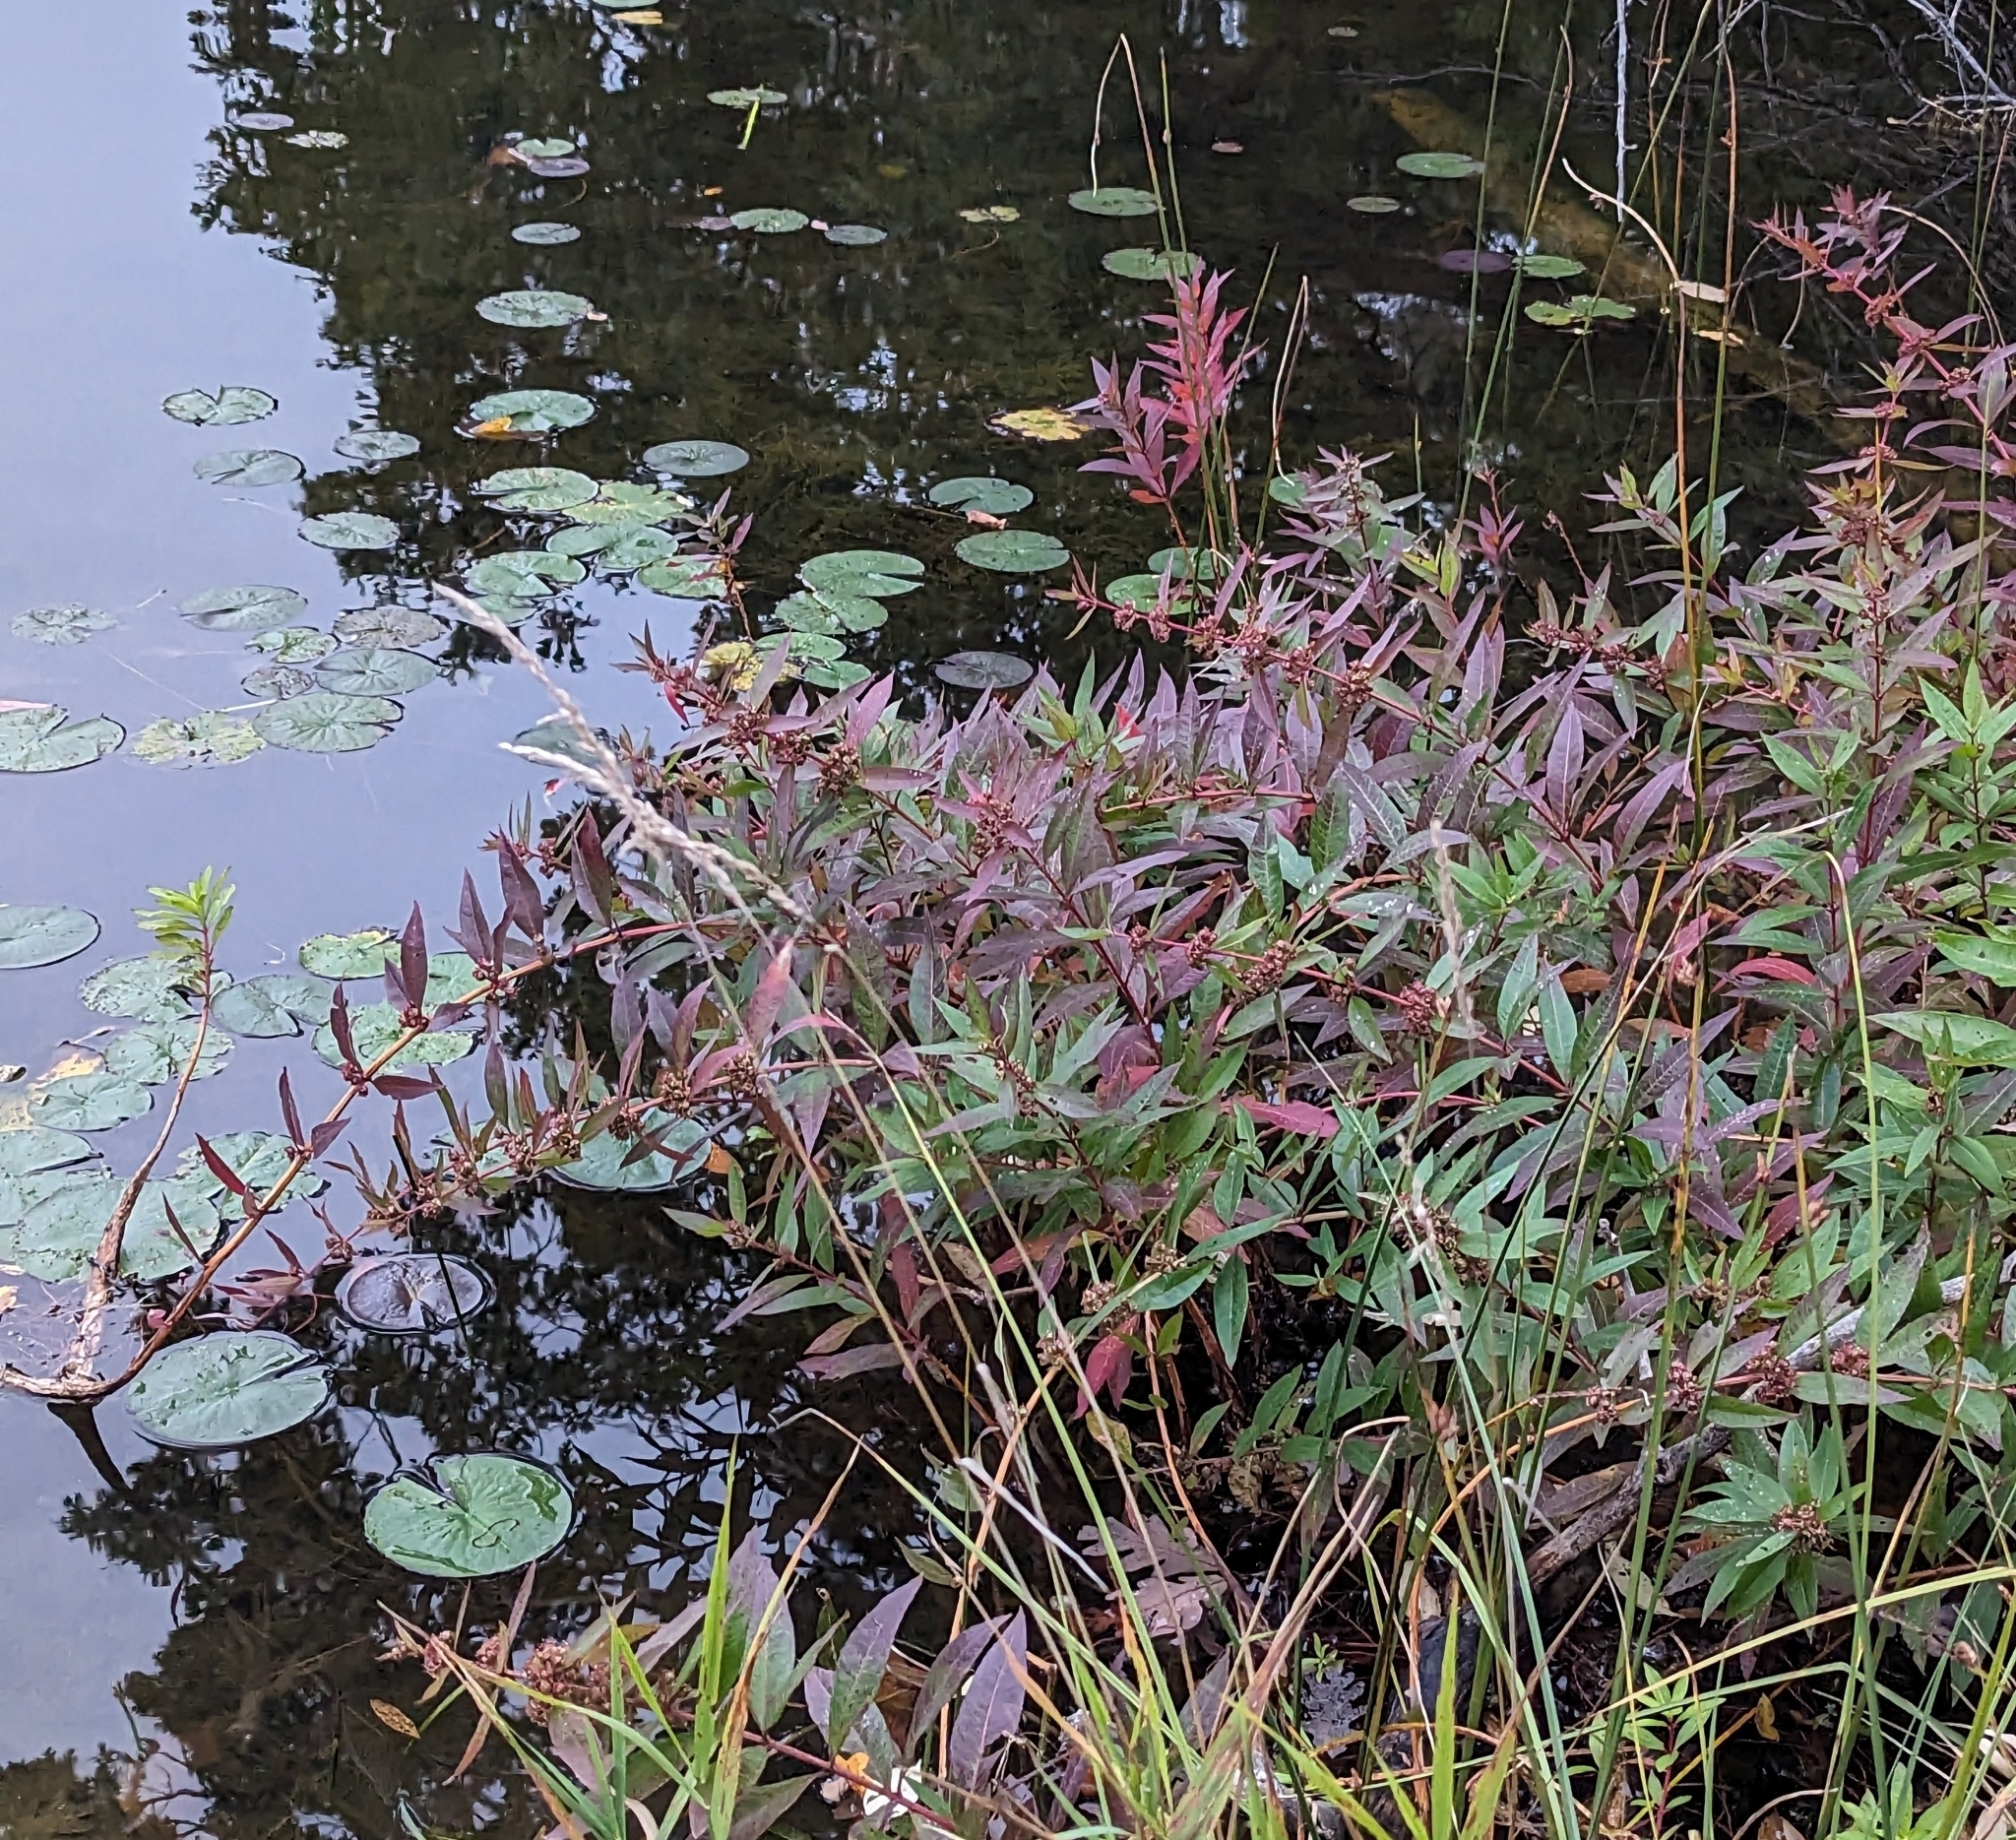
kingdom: Plantae
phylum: Tracheophyta
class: Magnoliopsida
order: Myrtales
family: Lythraceae
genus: Decodon
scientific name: Decodon verticillatus
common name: Hairy swamp loosestrife
